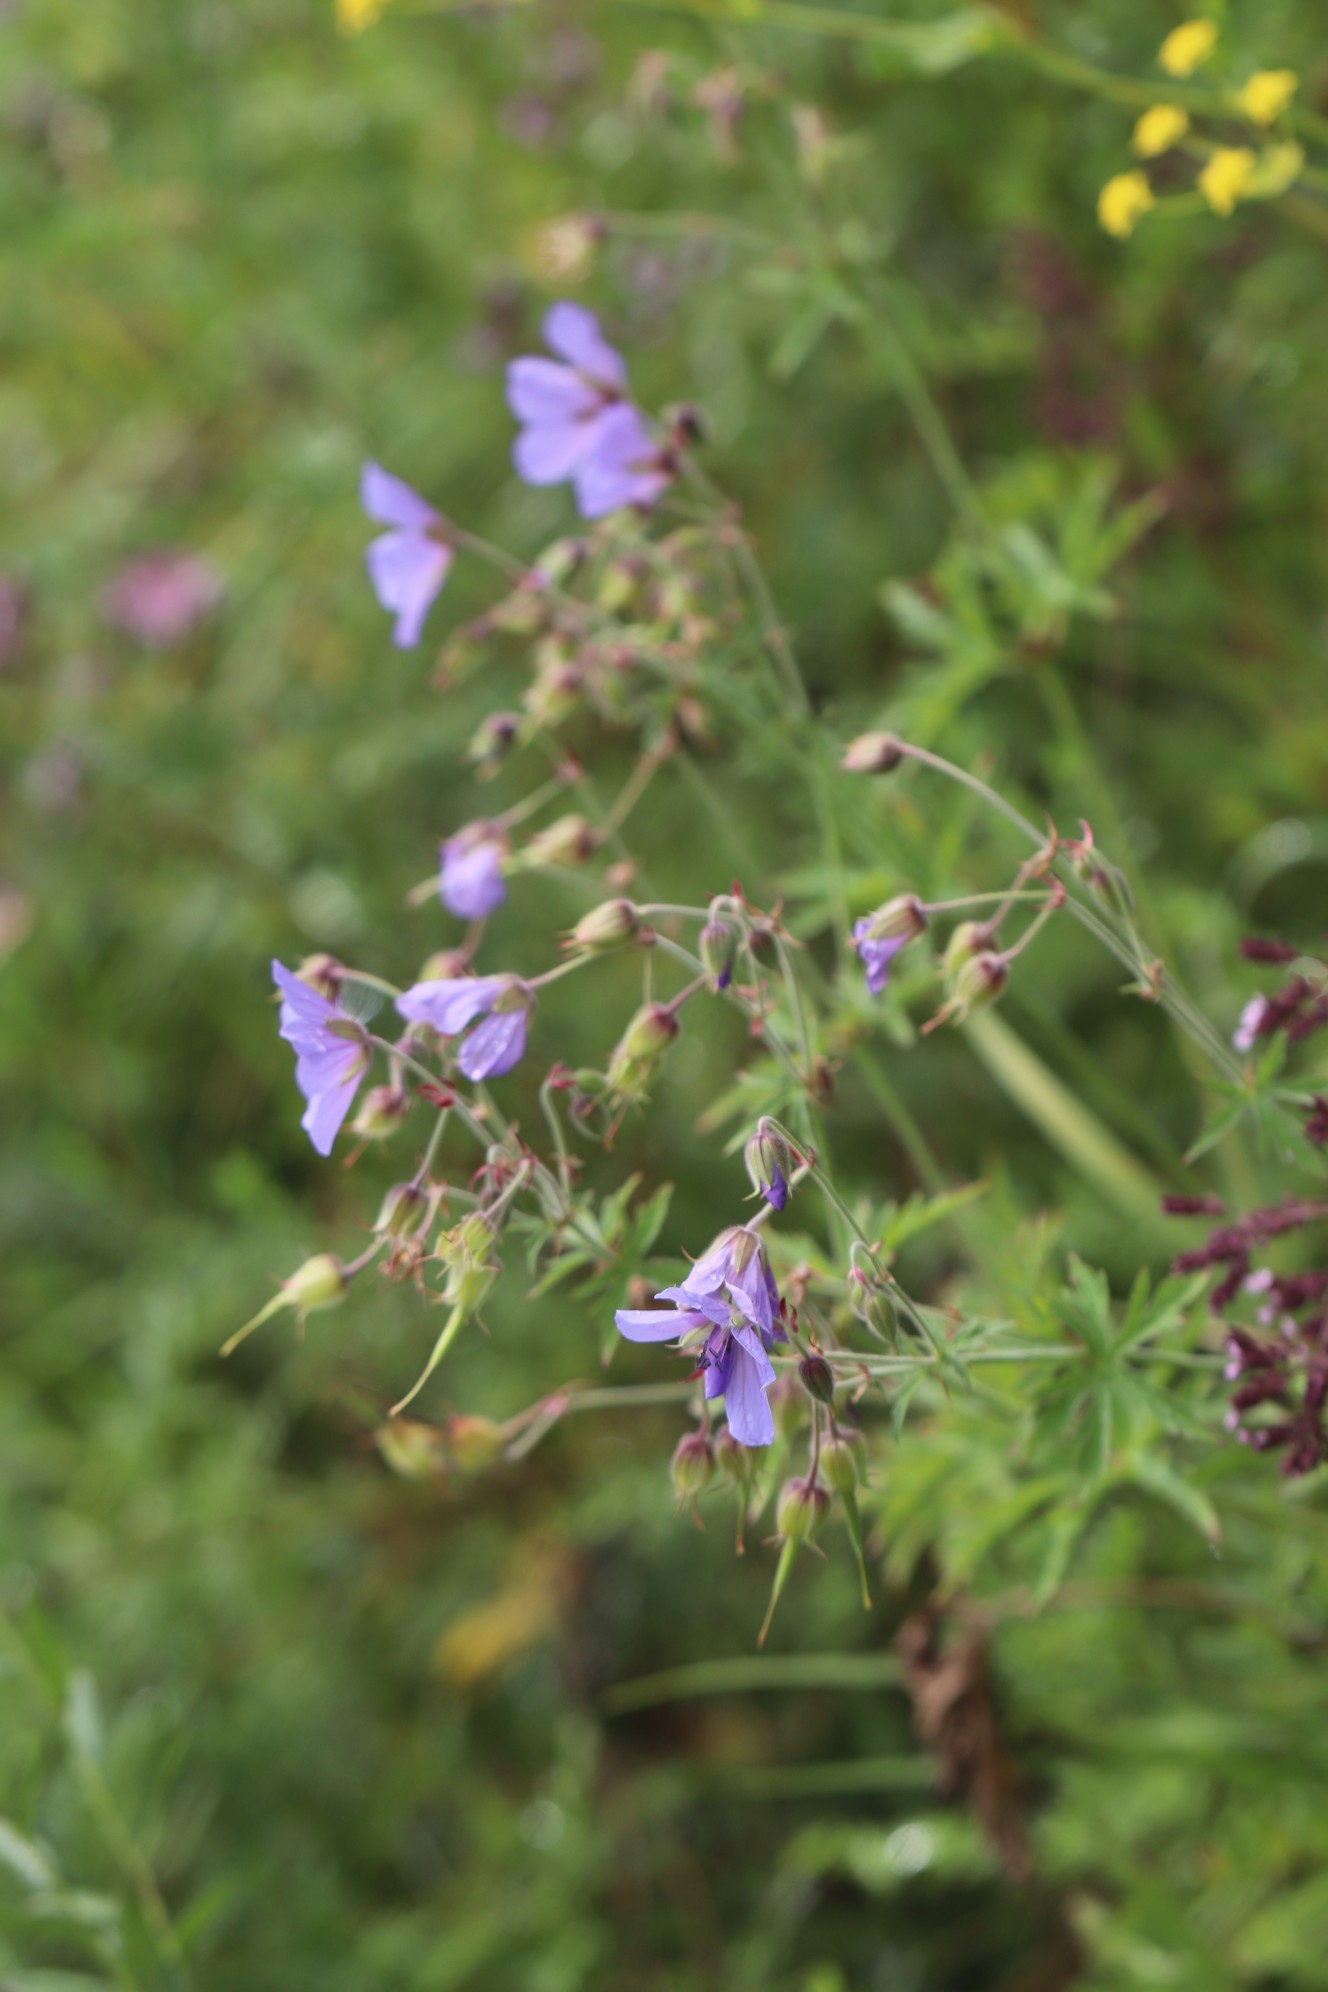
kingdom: Plantae
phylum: Tracheophyta
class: Magnoliopsida
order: Geraniales
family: Geraniaceae
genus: Geranium
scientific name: Geranium pratense
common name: Meadow crane's-bill
